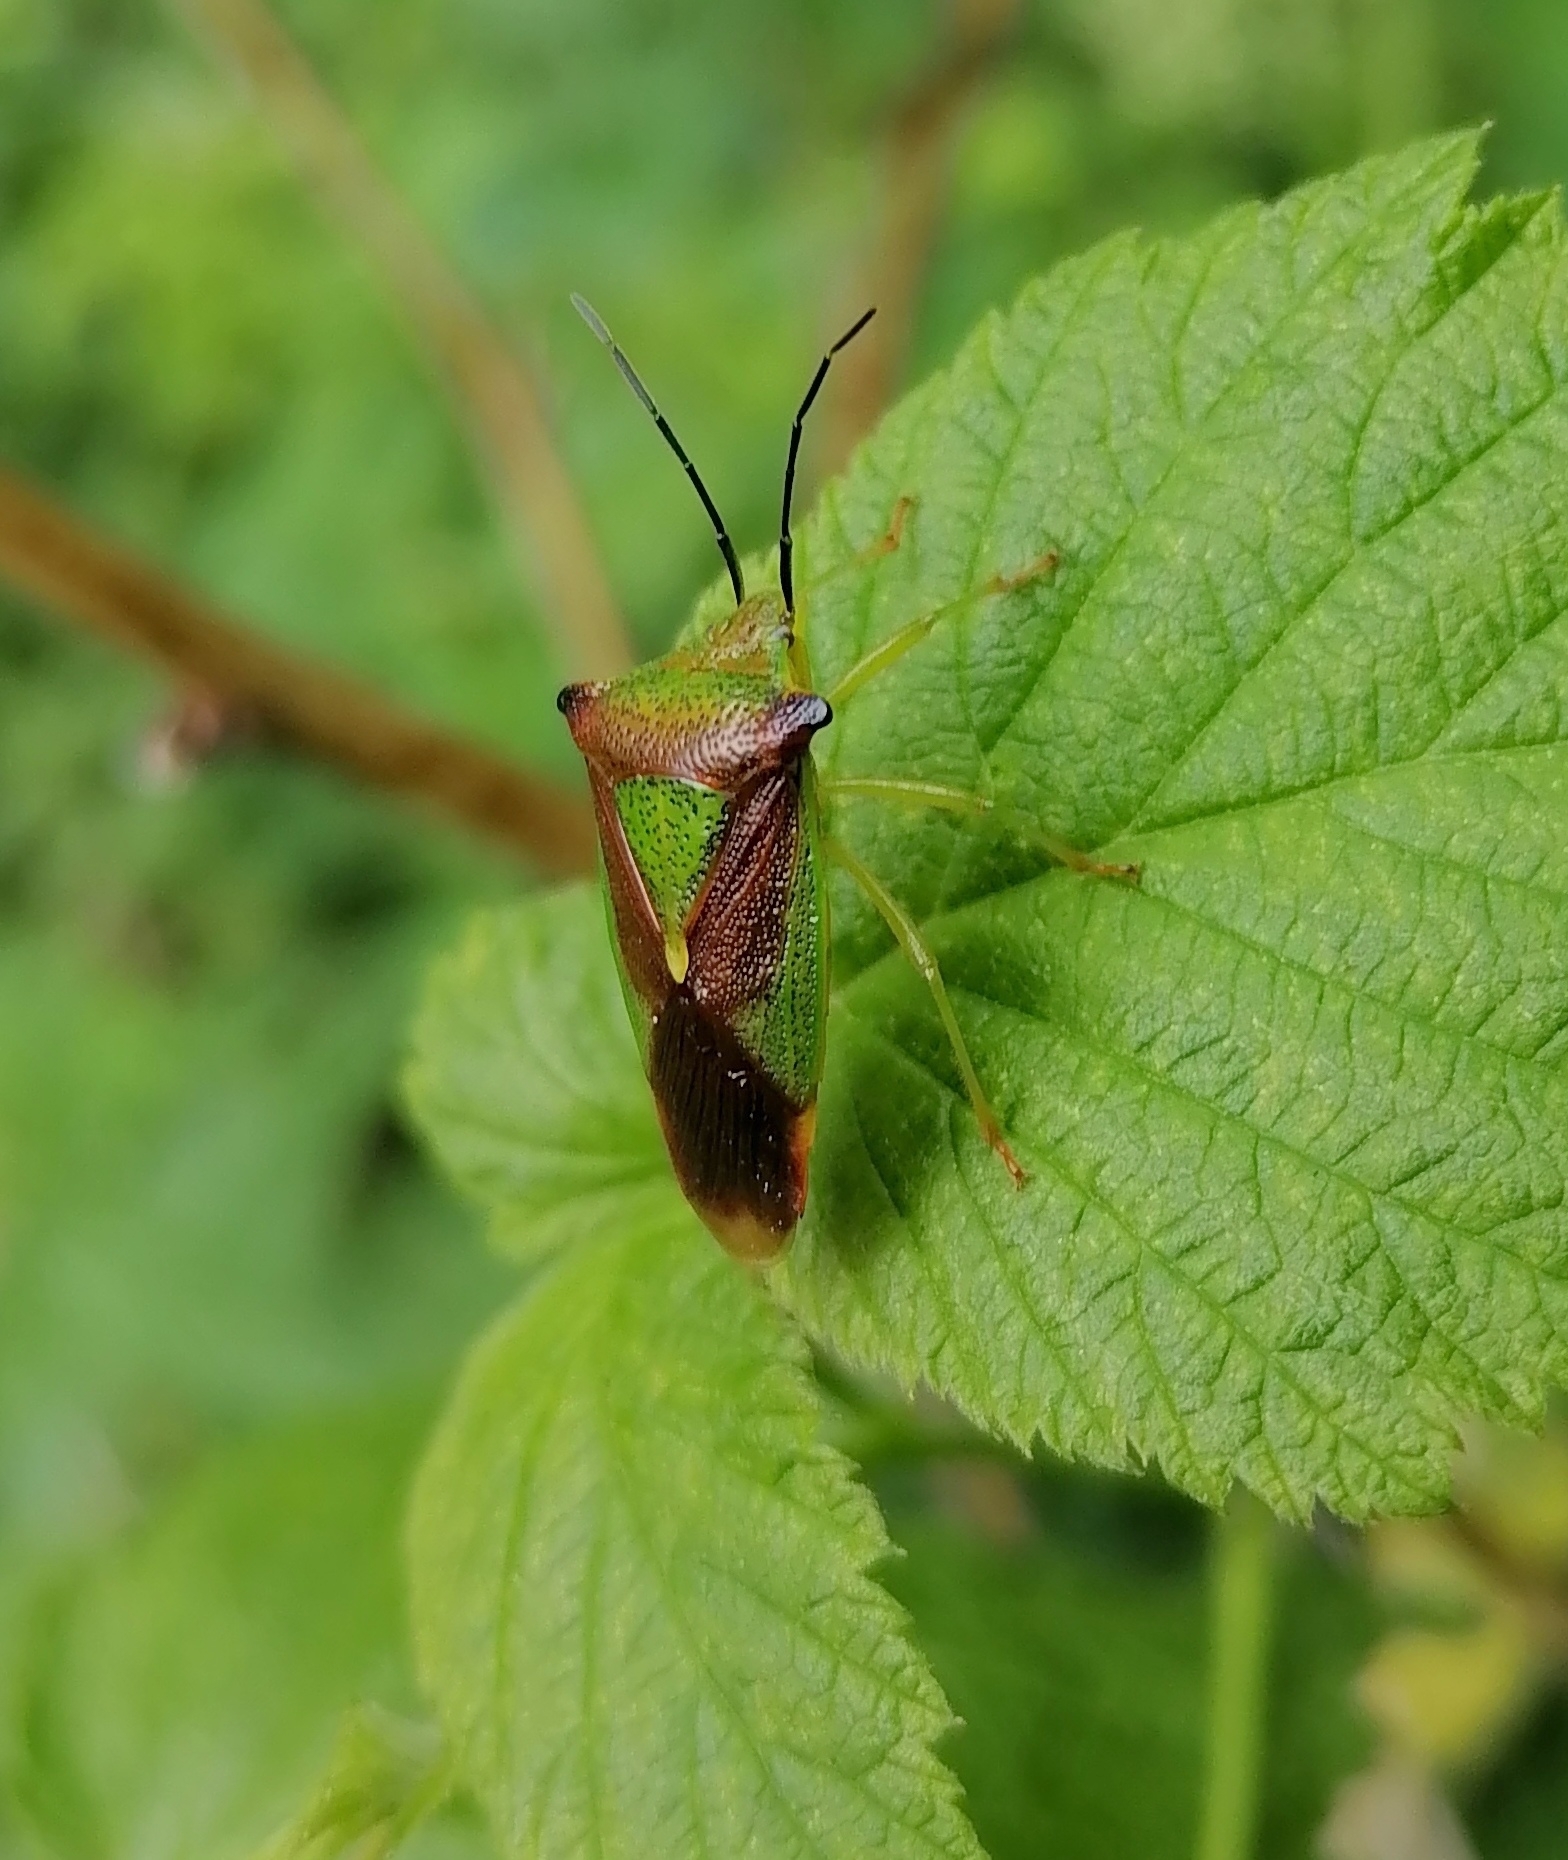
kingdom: Animalia
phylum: Arthropoda
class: Insecta
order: Hemiptera
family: Acanthosomatidae
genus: Acanthosoma
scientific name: Acanthosoma haemorrhoidale
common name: Hawthorn shieldbug
